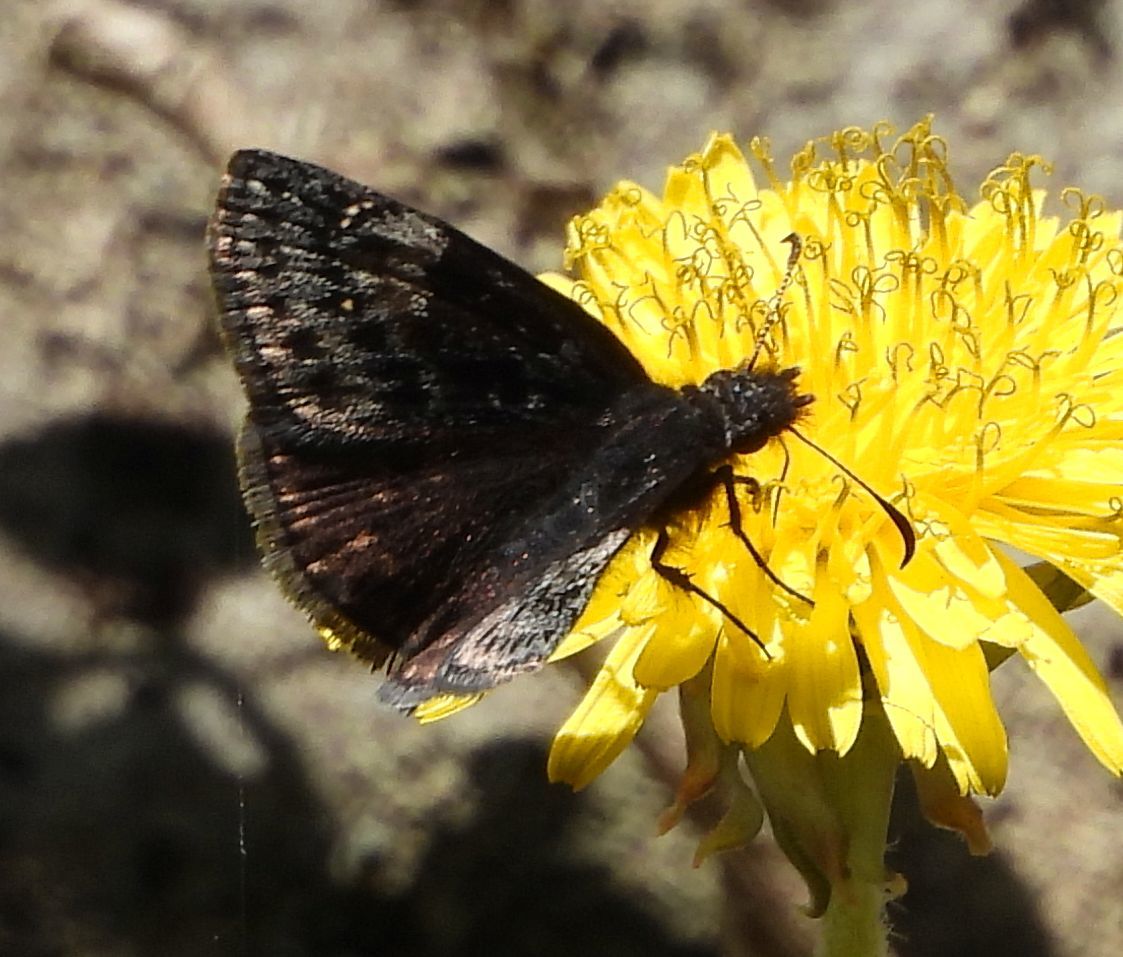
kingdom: Animalia
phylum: Arthropoda
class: Insecta
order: Lepidoptera
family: Hesperiidae
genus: Erynnis
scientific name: Erynnis lucilius
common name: Columbine duskywing
